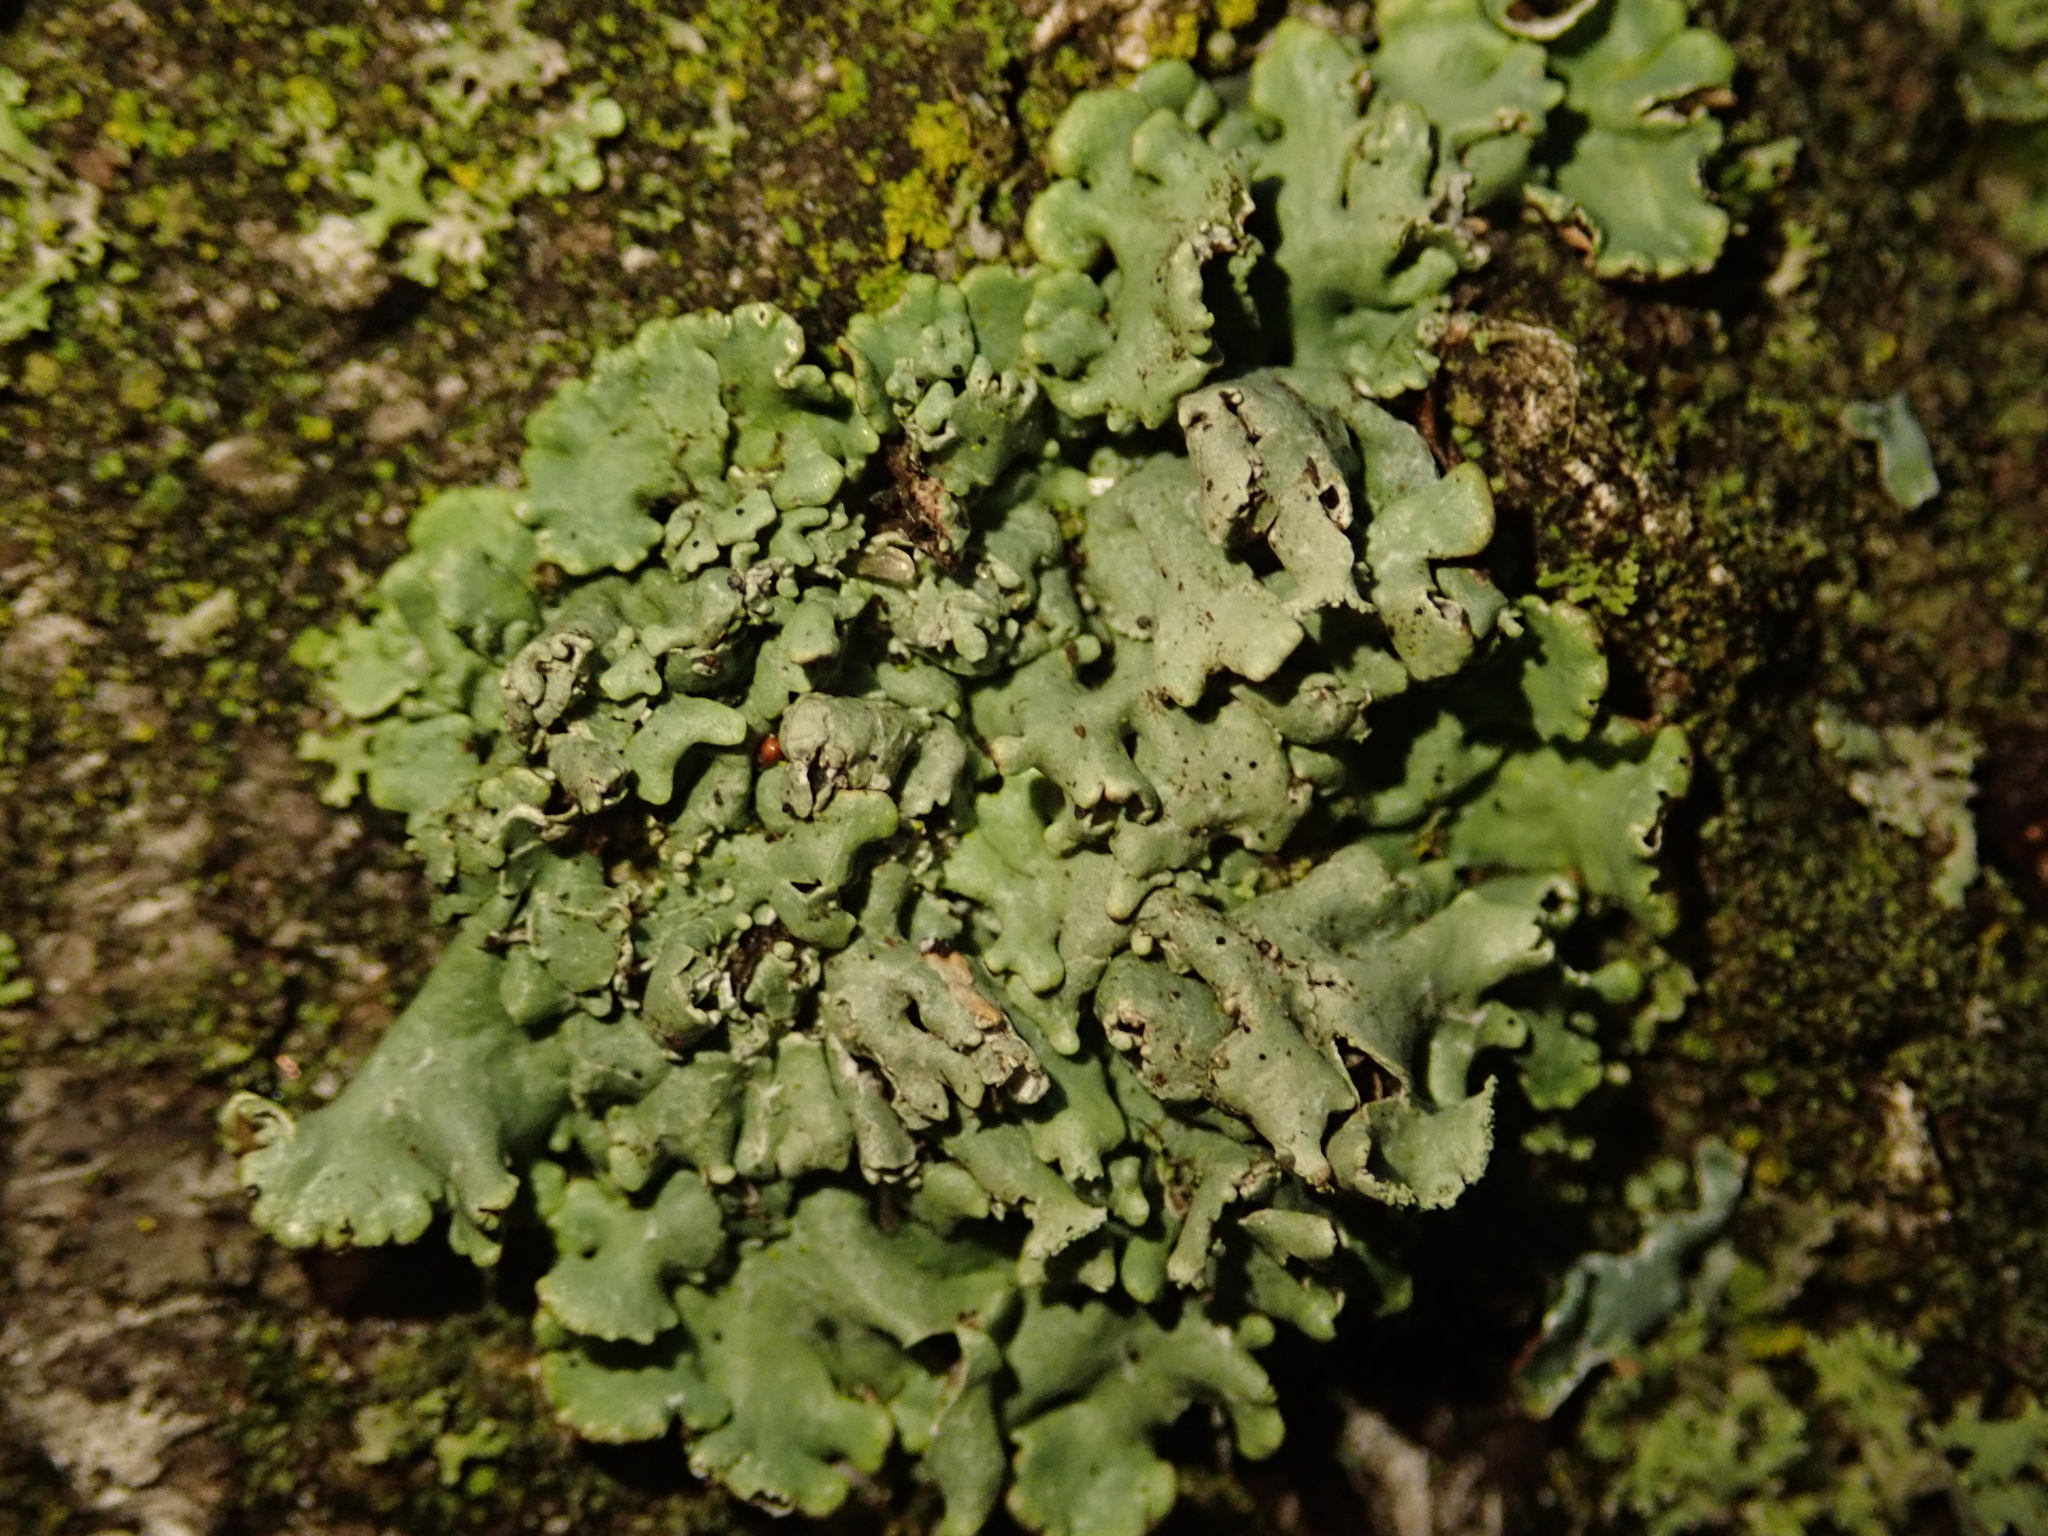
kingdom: Fungi
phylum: Ascomycota
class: Lecanoromycetes
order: Lecanorales
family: Parmeliaceae
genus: Hypogymnia
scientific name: Hypogymnia physodes
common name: Dark crottle
